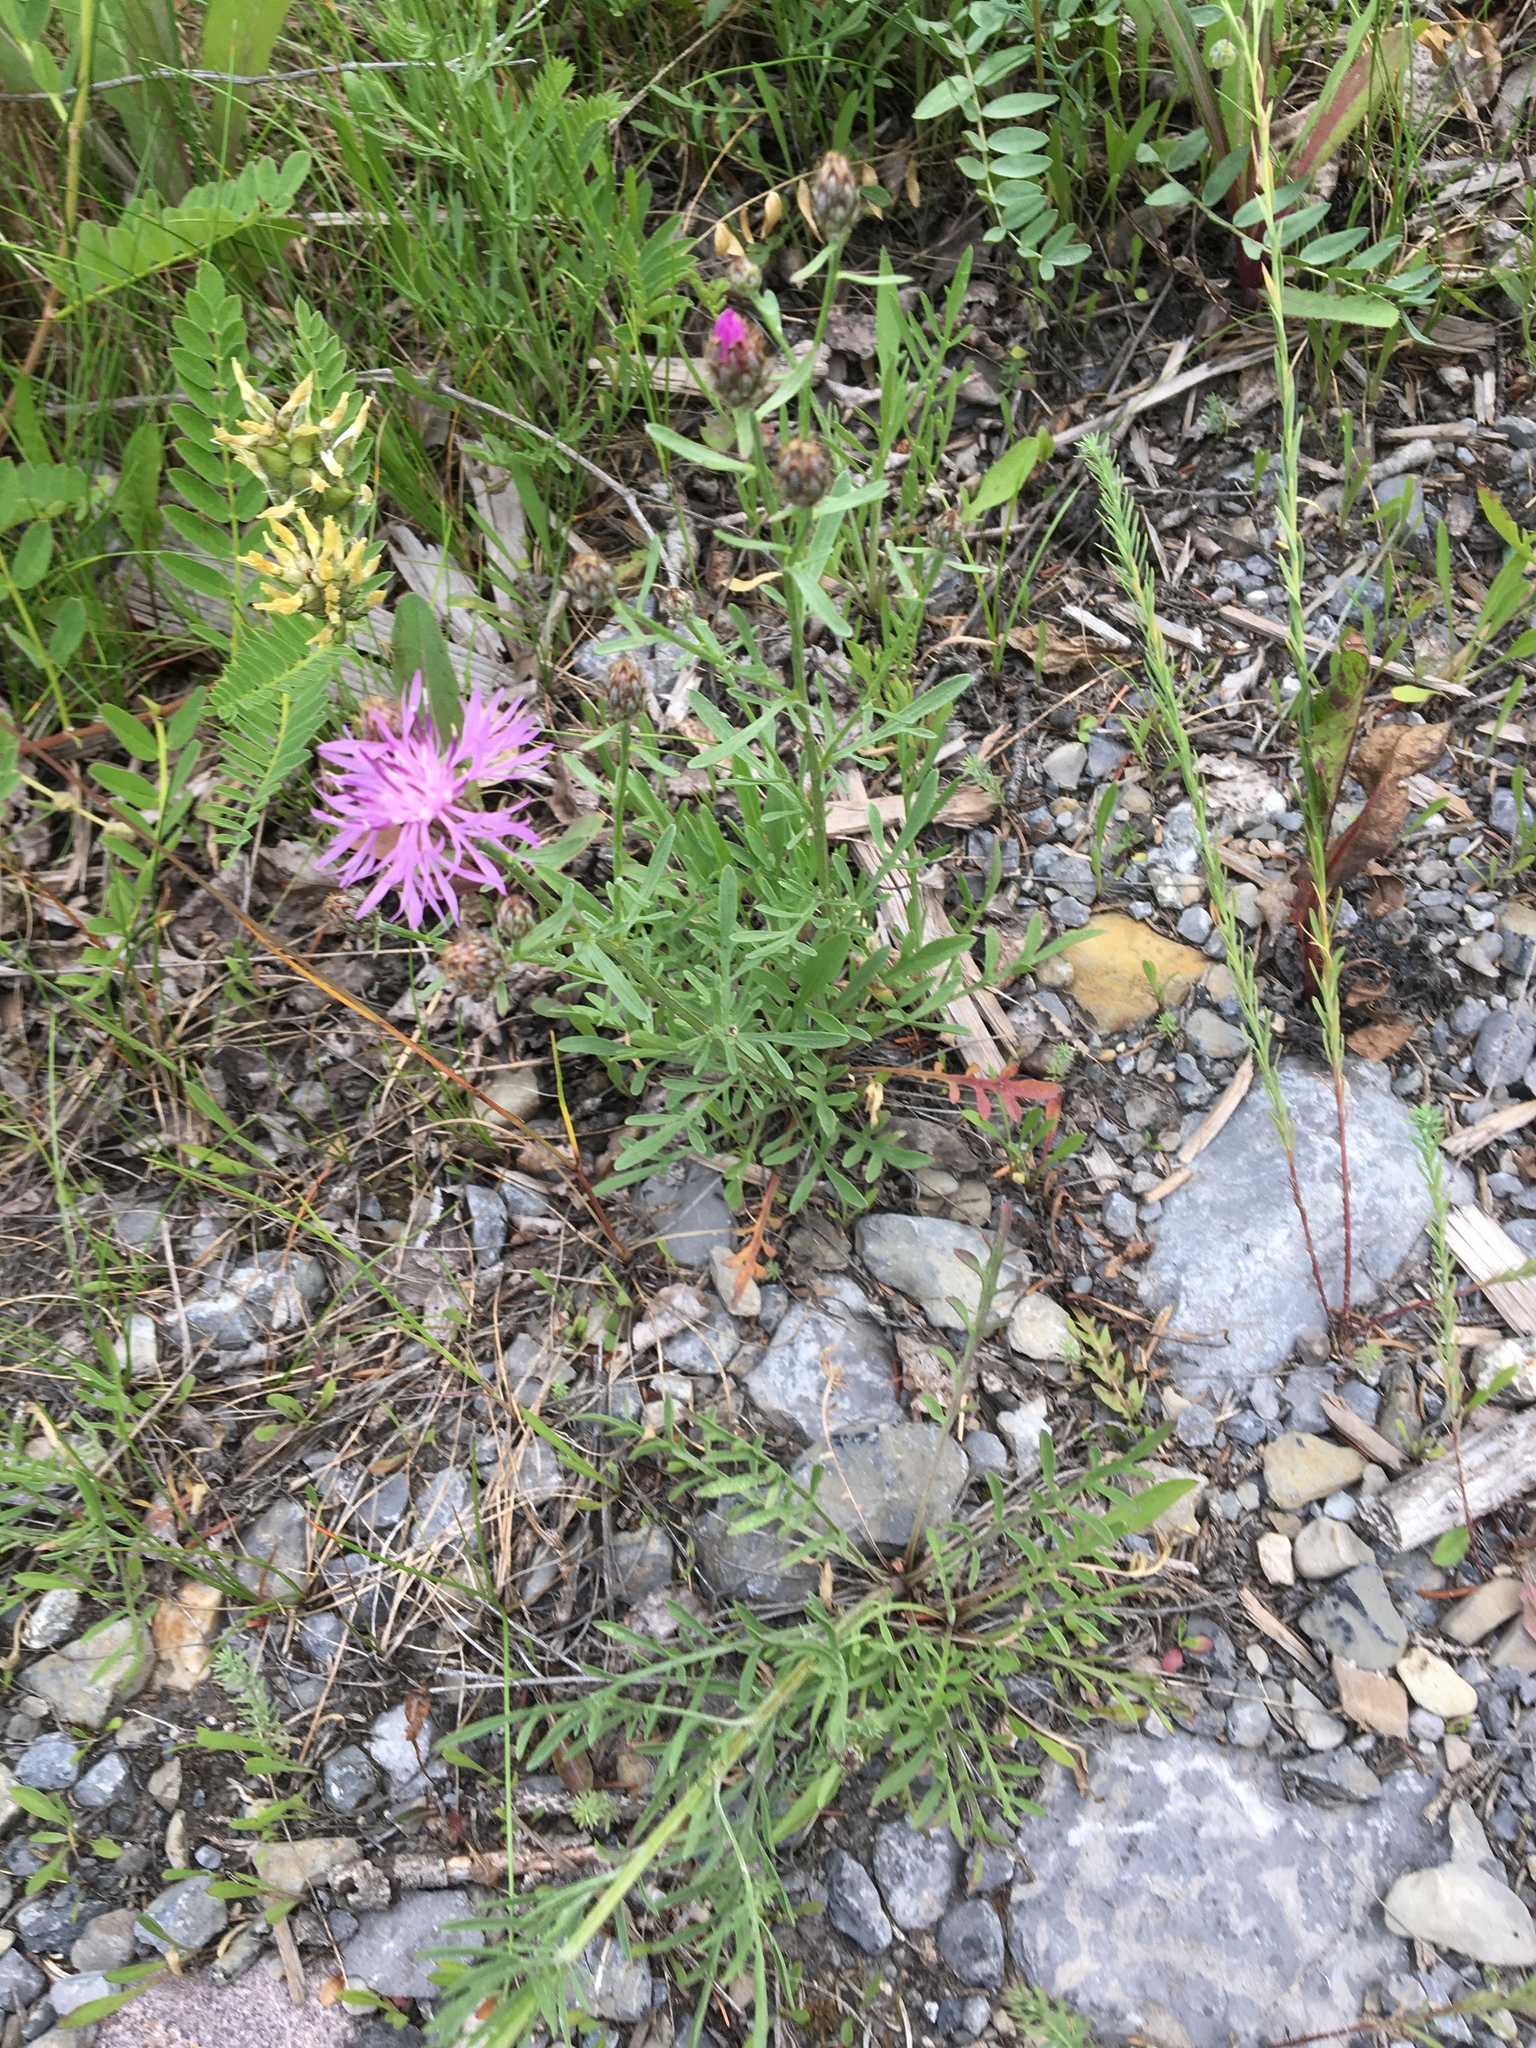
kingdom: Plantae
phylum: Tracheophyta
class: Magnoliopsida
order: Asterales
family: Asteraceae
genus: Centaurea
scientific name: Centaurea stoebe
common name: Spotted knapweed
